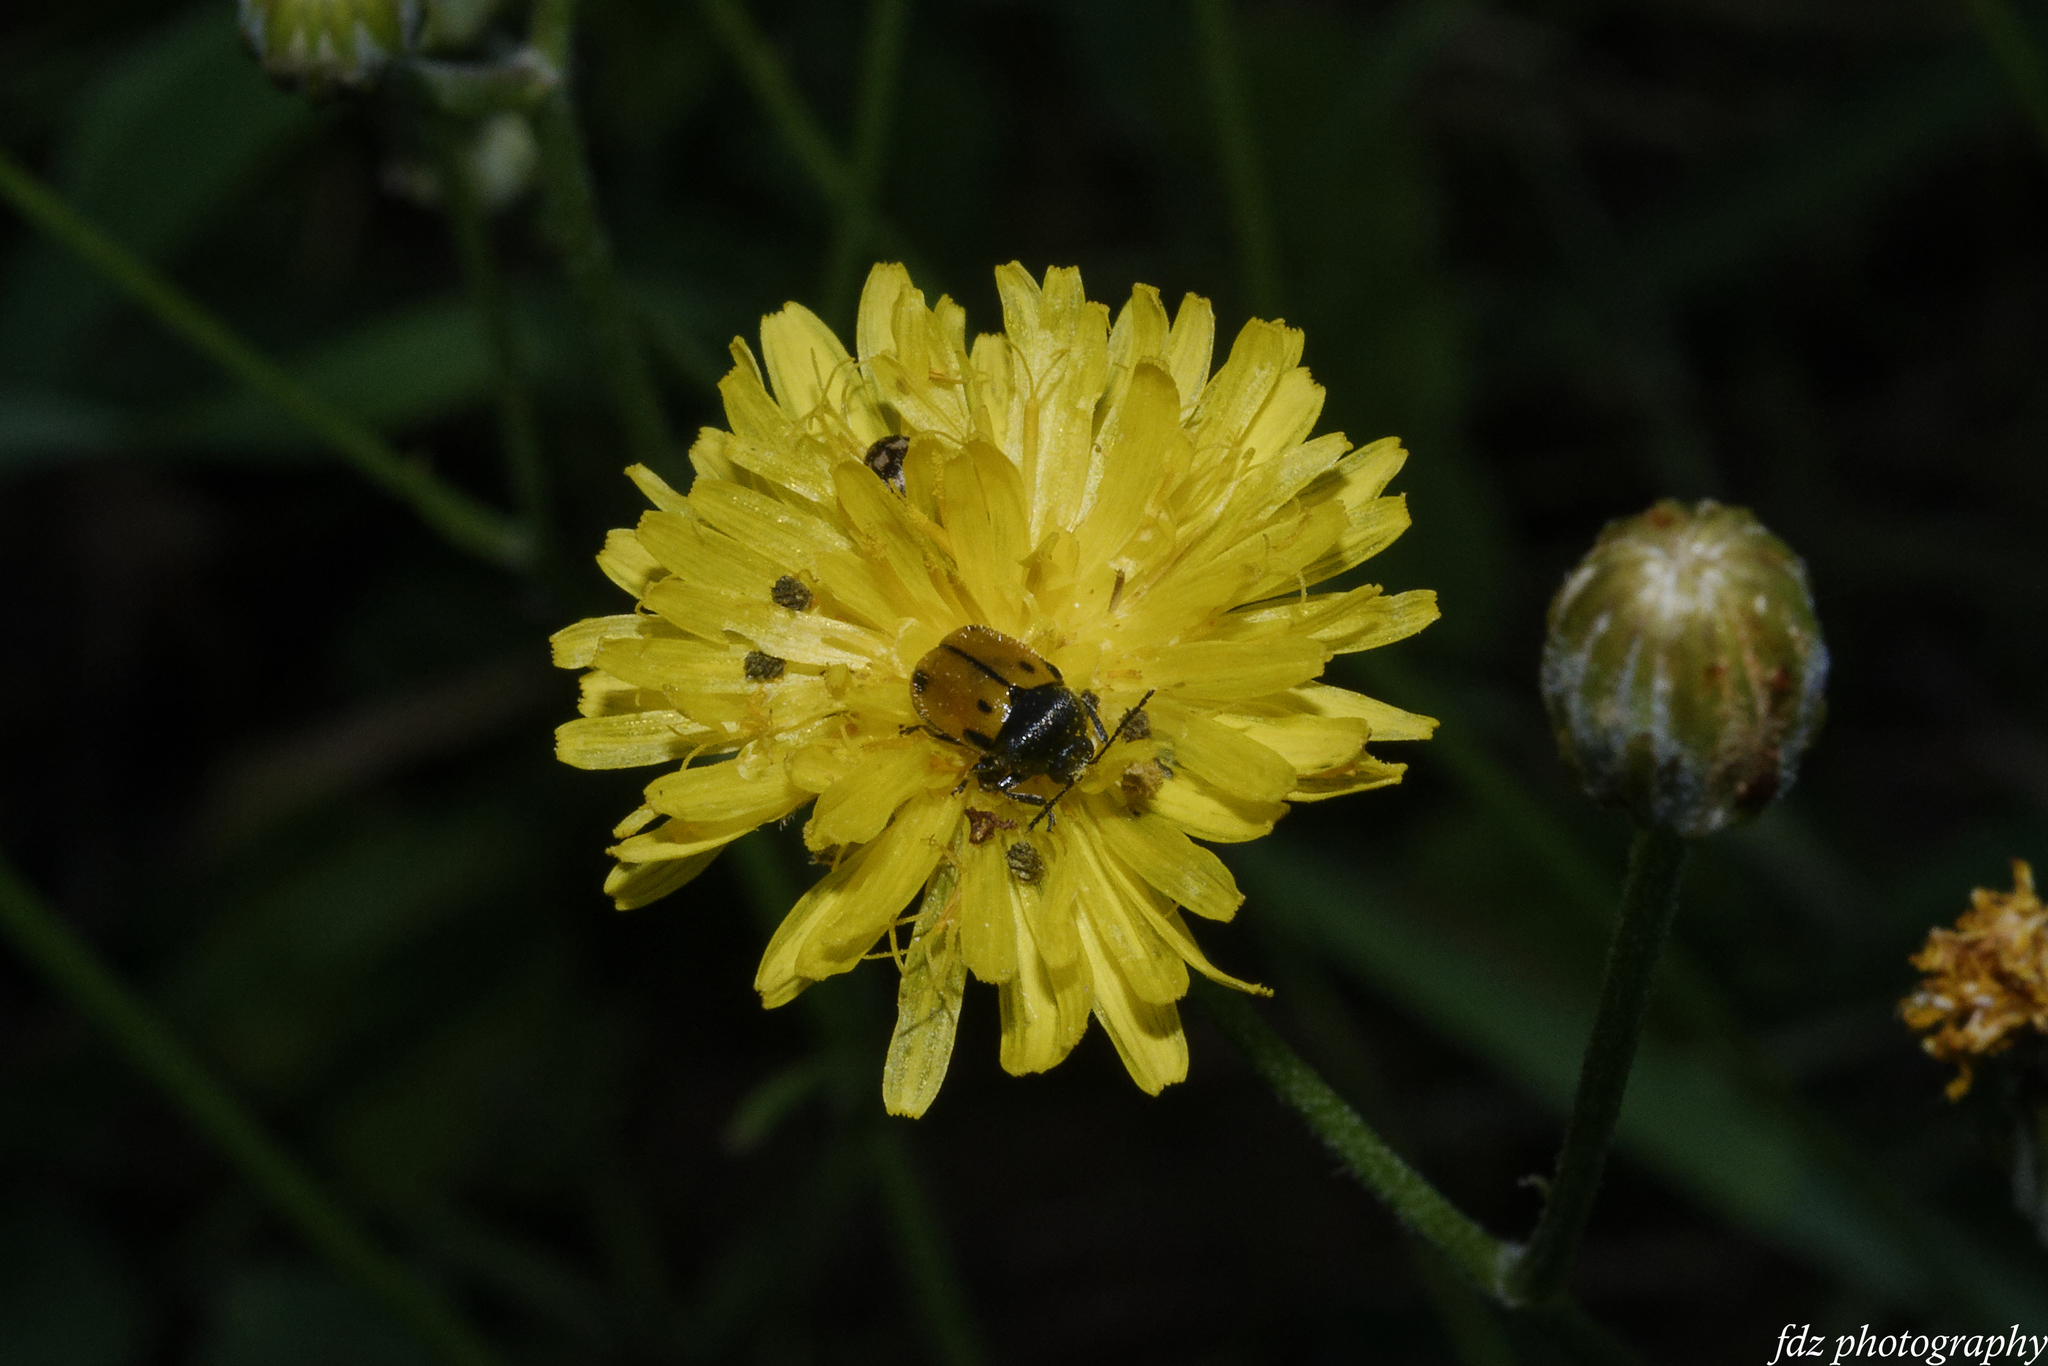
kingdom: Animalia
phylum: Arthropoda
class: Insecta
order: Coleoptera
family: Chrysomelidae
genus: Cryptocephalus
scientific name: Cryptocephalus rugicollis
